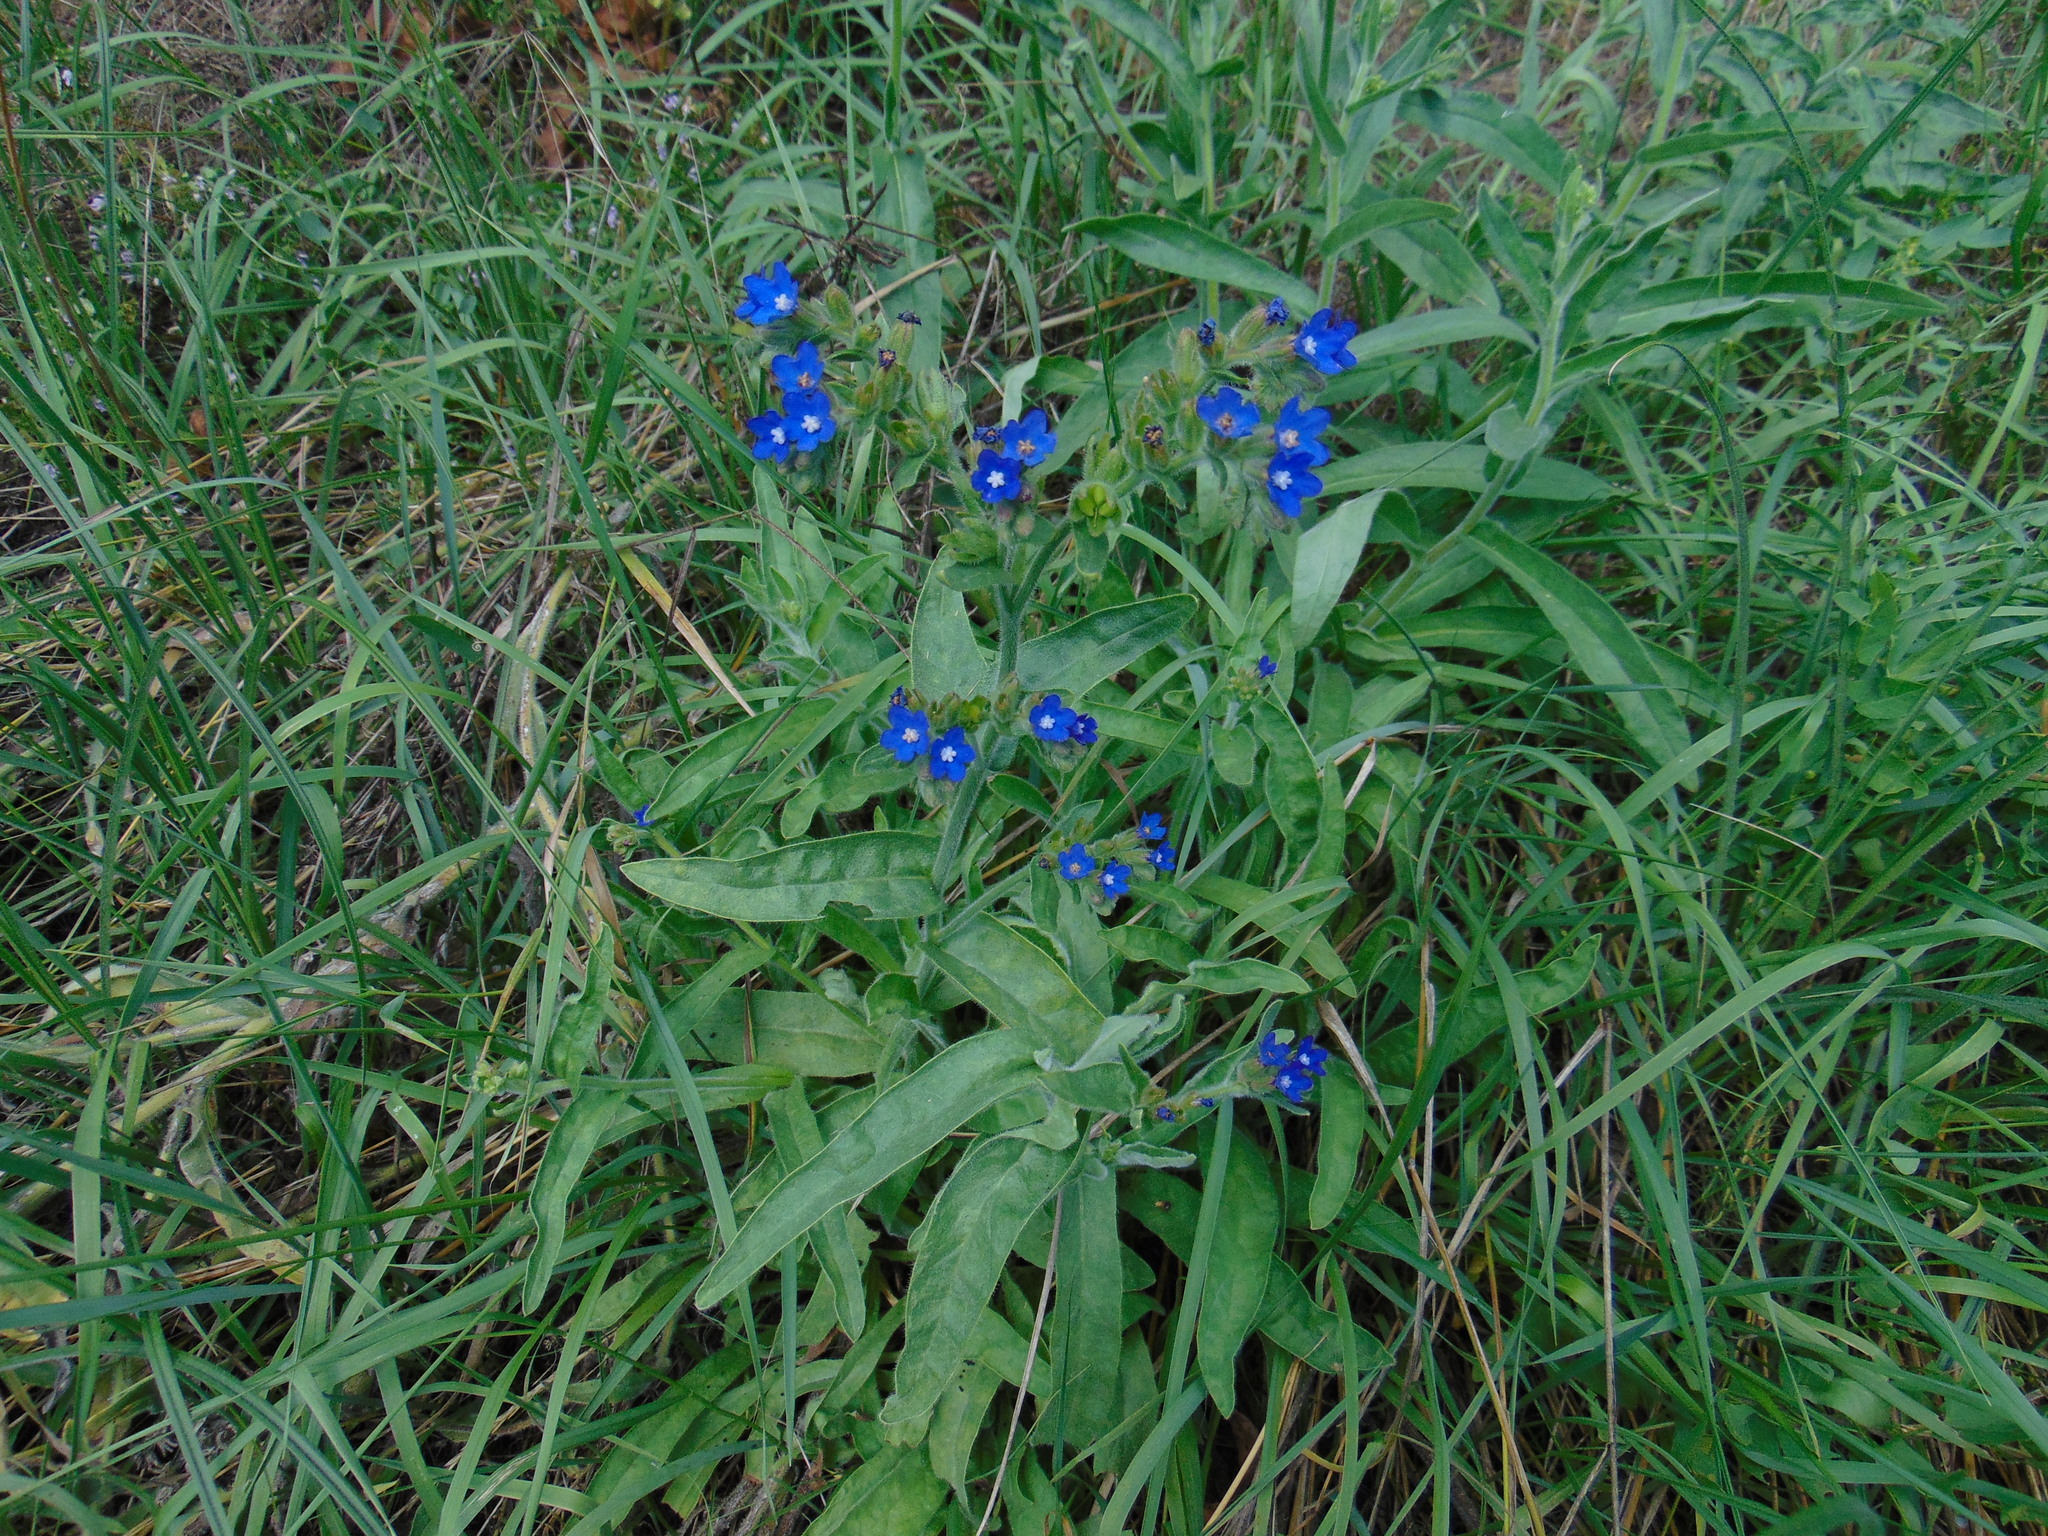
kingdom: Plantae
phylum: Tracheophyta
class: Magnoliopsida
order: Boraginales
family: Boraginaceae
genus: Anchusa
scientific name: Anchusa officinalis
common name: Alkanet
